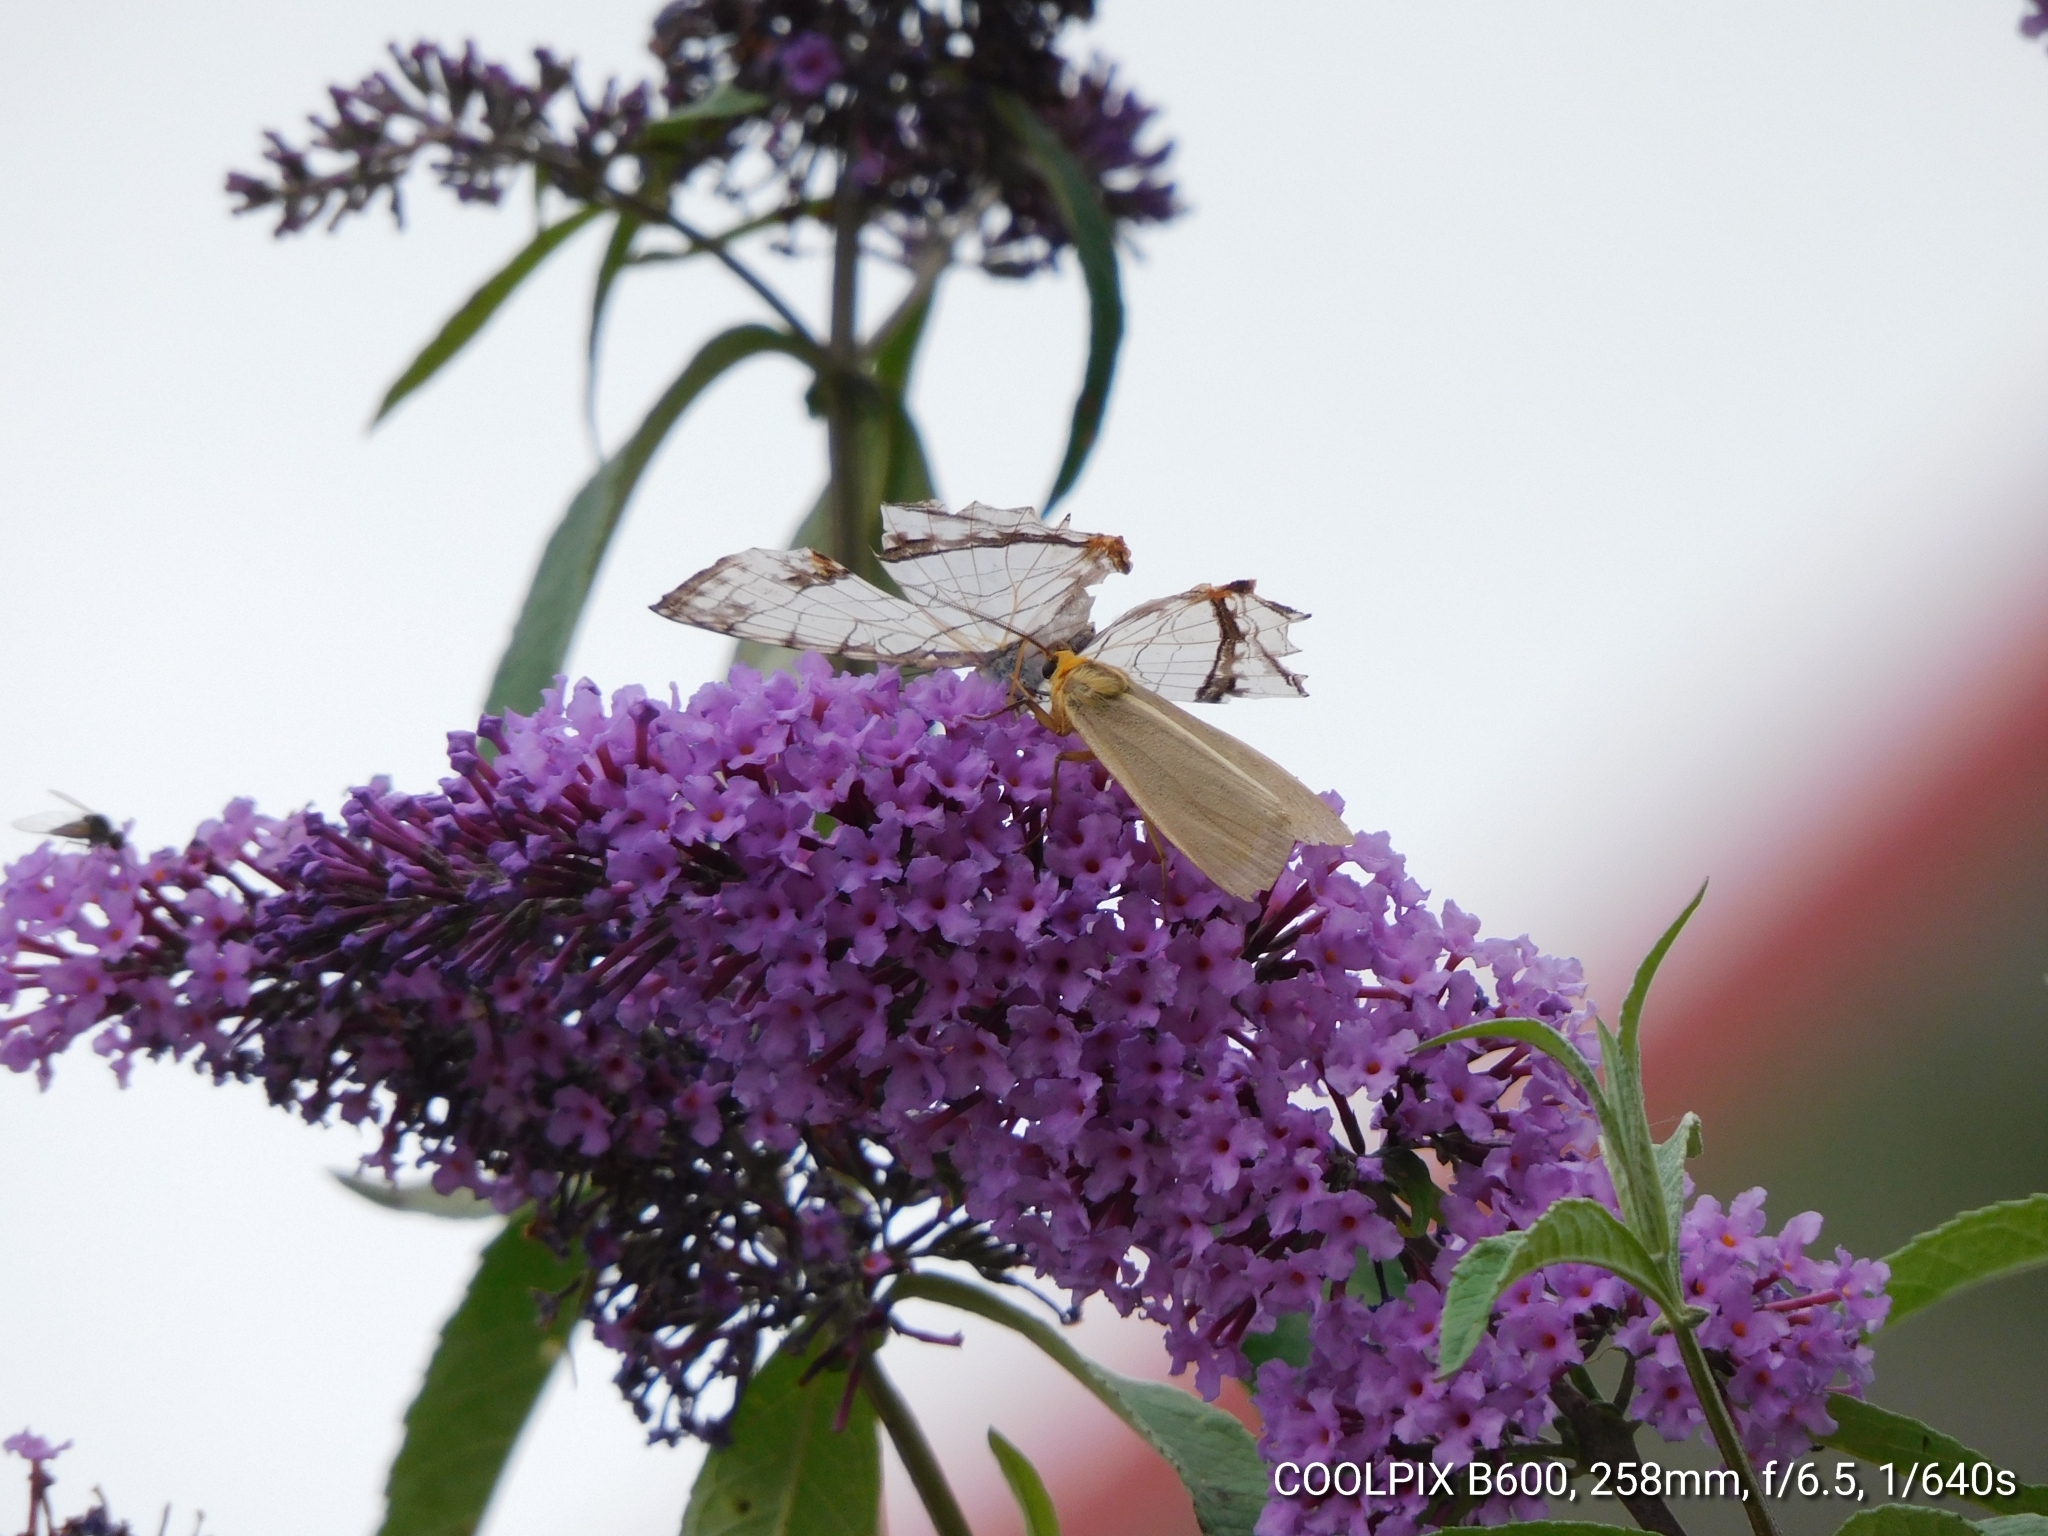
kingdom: Animalia
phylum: Arthropoda
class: Insecta
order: Lepidoptera
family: Nymphalidae
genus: Cyrestis
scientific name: Cyrestis thyodamas
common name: Common mapwing
